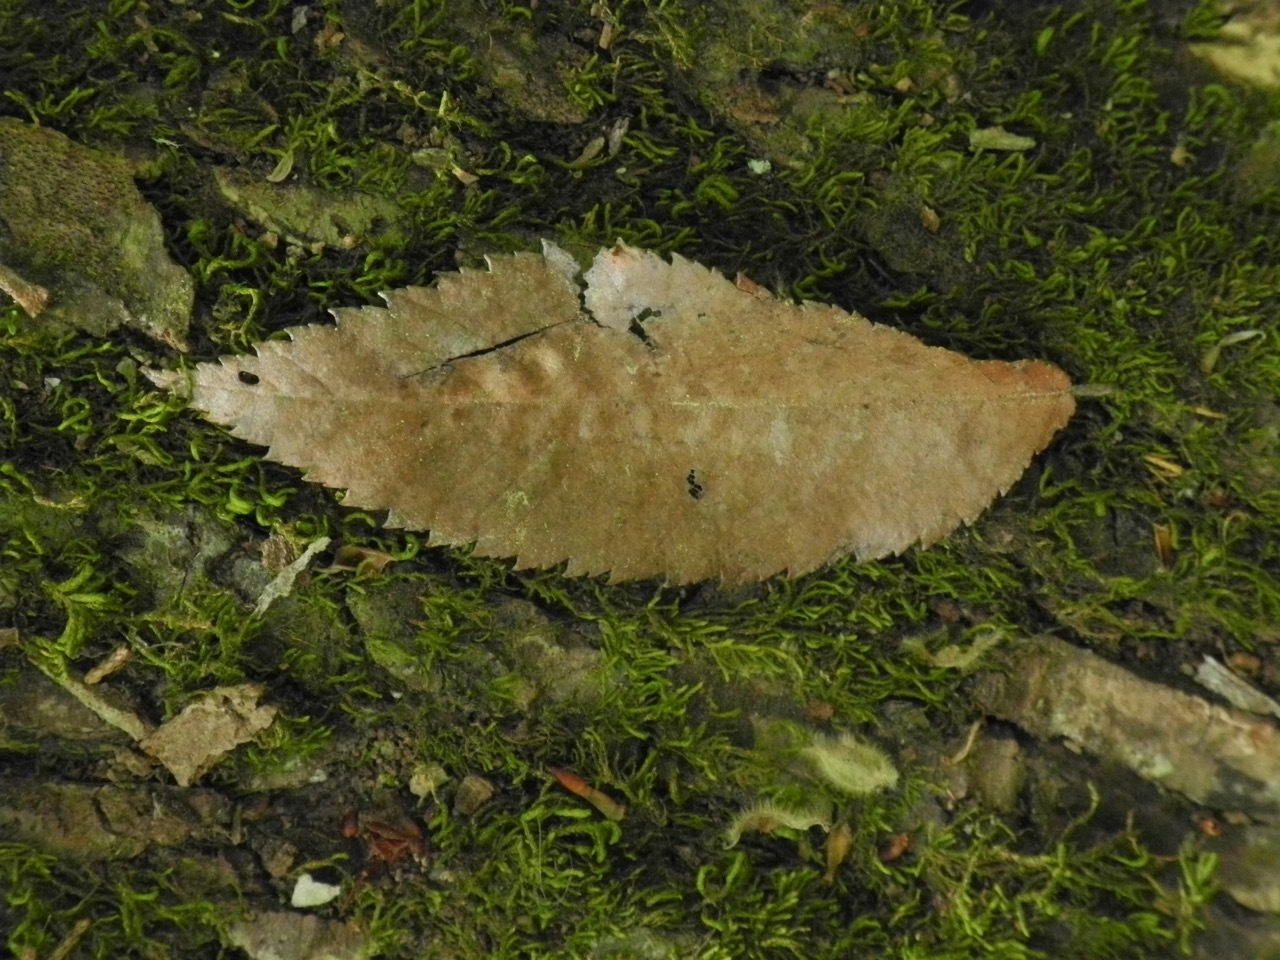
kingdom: Plantae
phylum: Tracheophyta
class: Magnoliopsida
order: Rosales
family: Ulmaceae
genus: Ulmus
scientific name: Ulmus alata
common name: Winged elm
